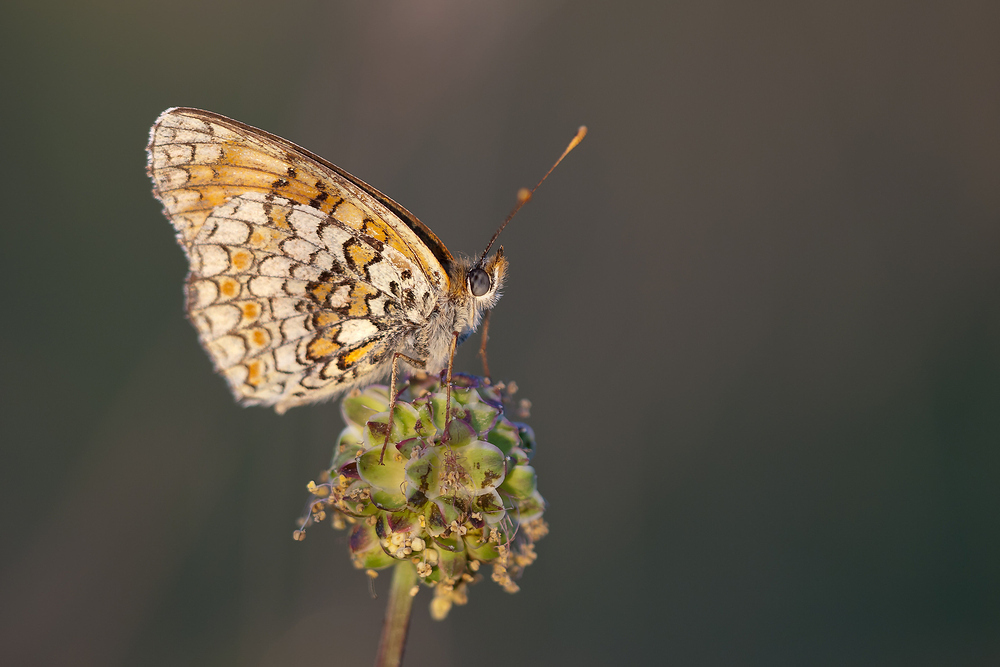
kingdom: Animalia
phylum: Arthropoda
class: Insecta
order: Lepidoptera
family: Nymphalidae
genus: Melitaea
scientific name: Melitaea phoebe
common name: Knapweed fritillary
